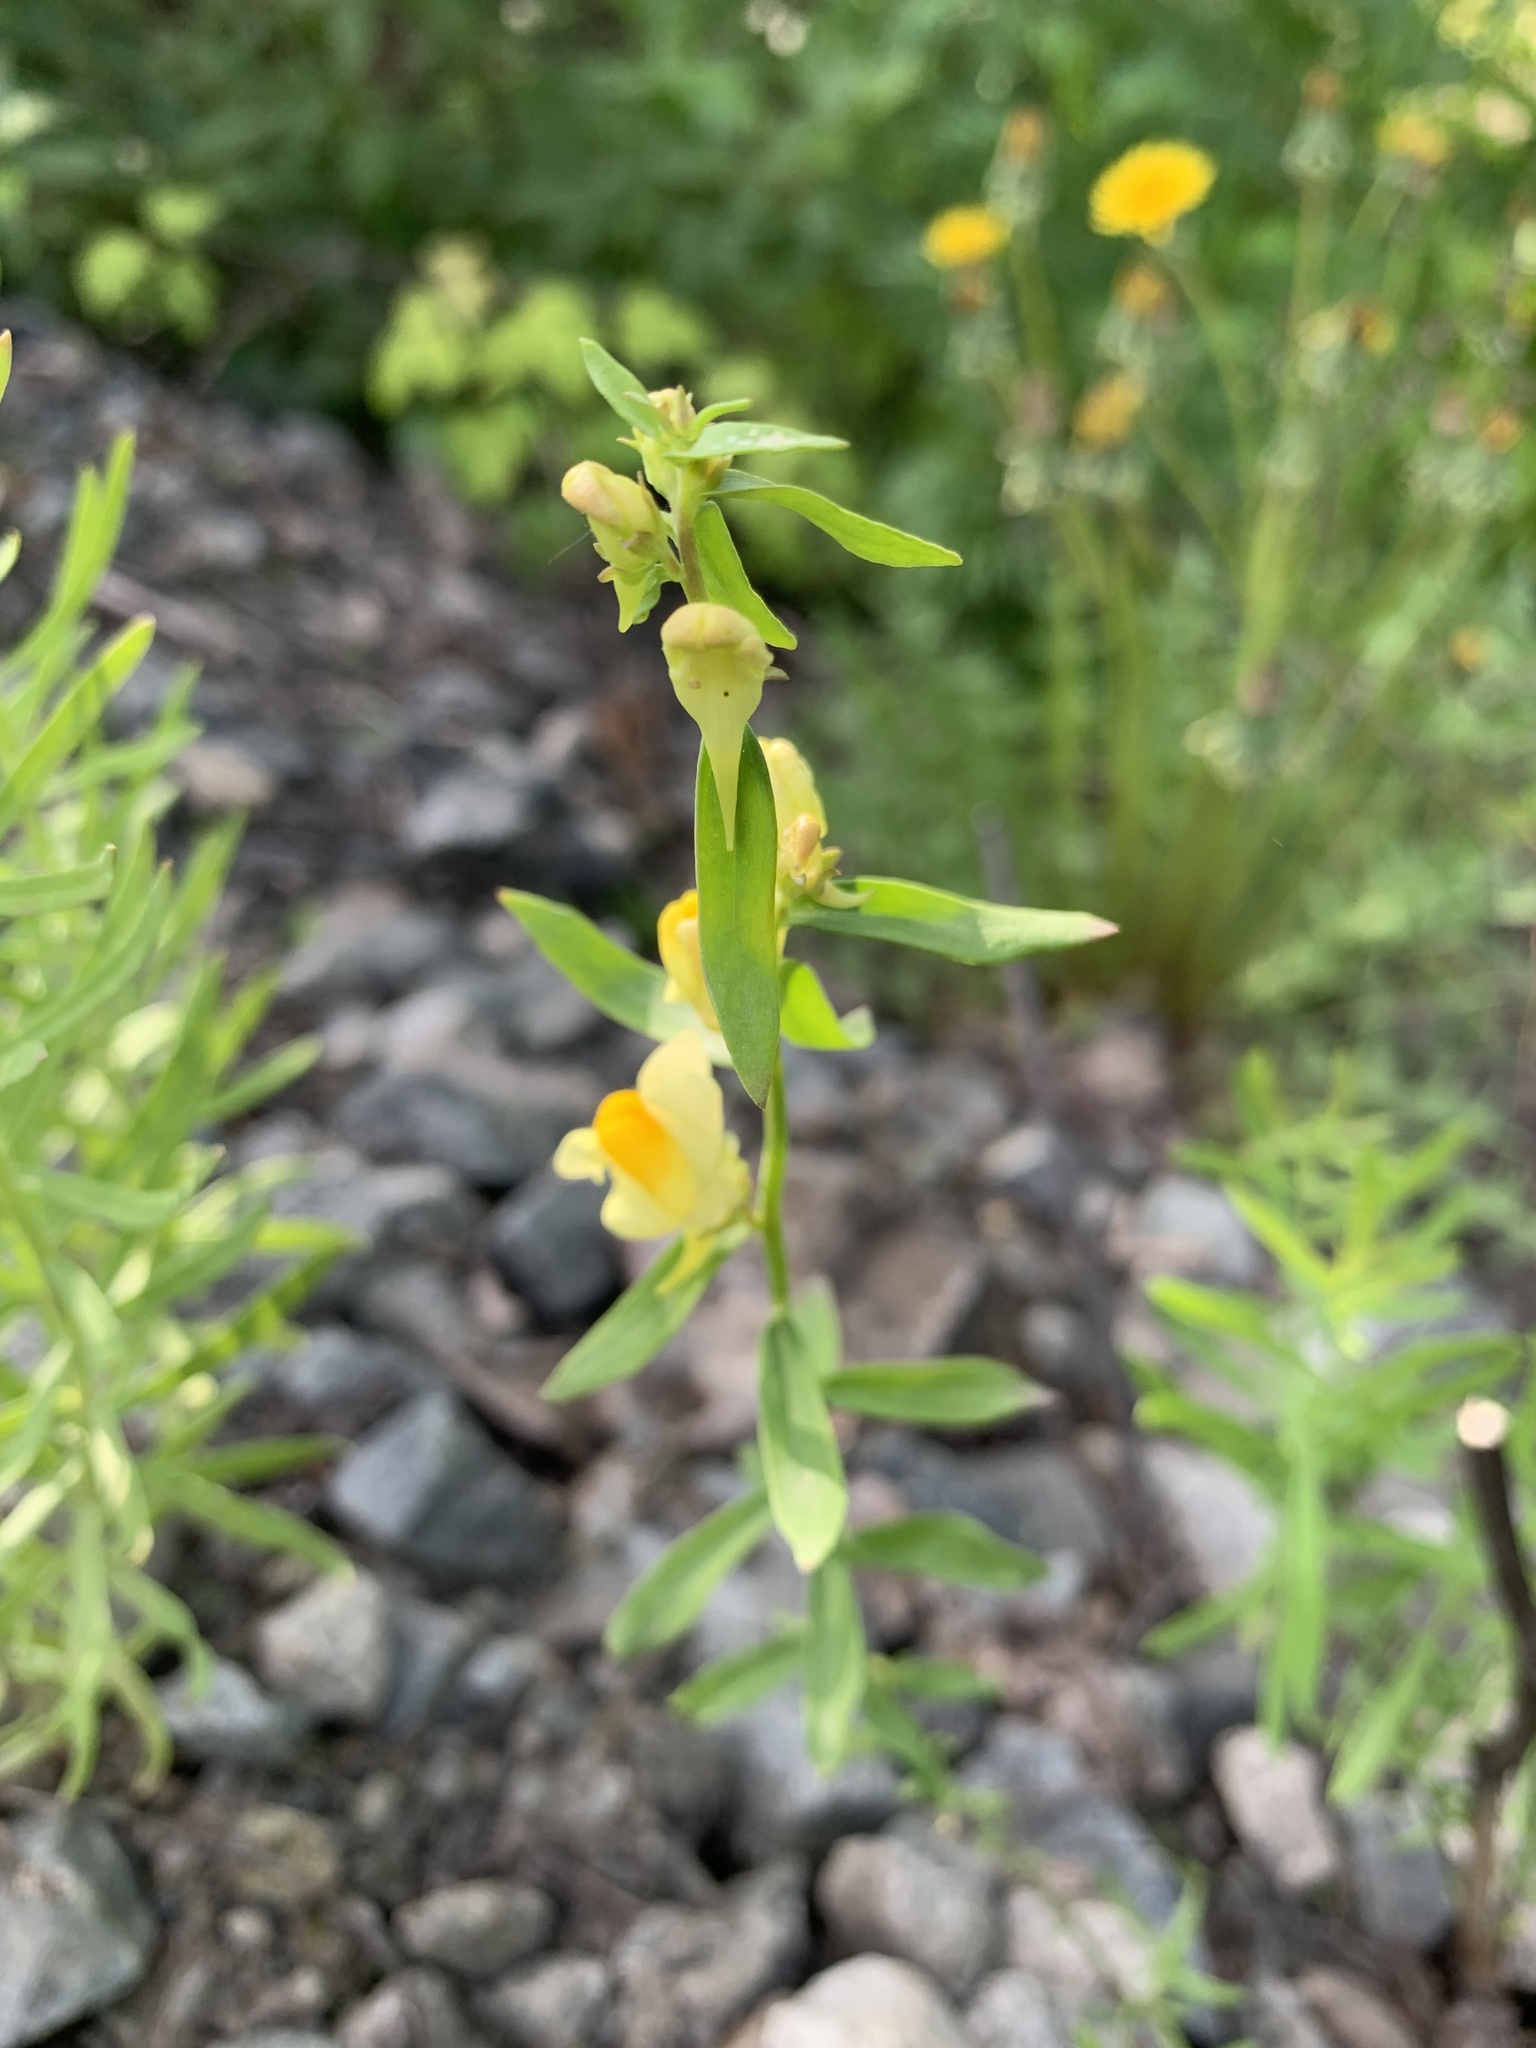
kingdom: Plantae
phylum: Tracheophyta
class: Magnoliopsida
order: Lamiales
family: Plantaginaceae
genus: Linaria
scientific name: Linaria vulgaris
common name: Butter and eggs
